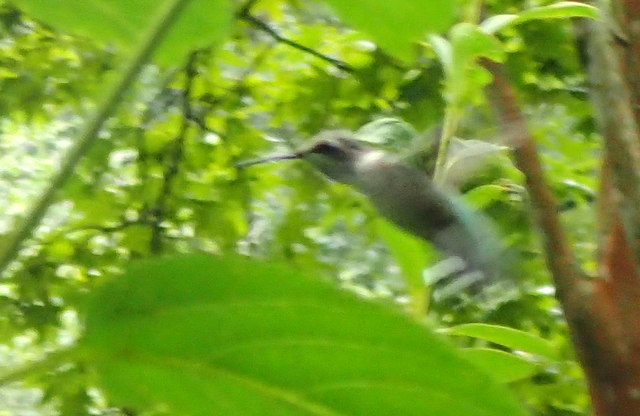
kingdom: Animalia
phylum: Chordata
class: Aves
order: Apodiformes
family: Trochilidae
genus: Archilochus
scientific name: Archilochus colubris
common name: Ruby-throated hummingbird
